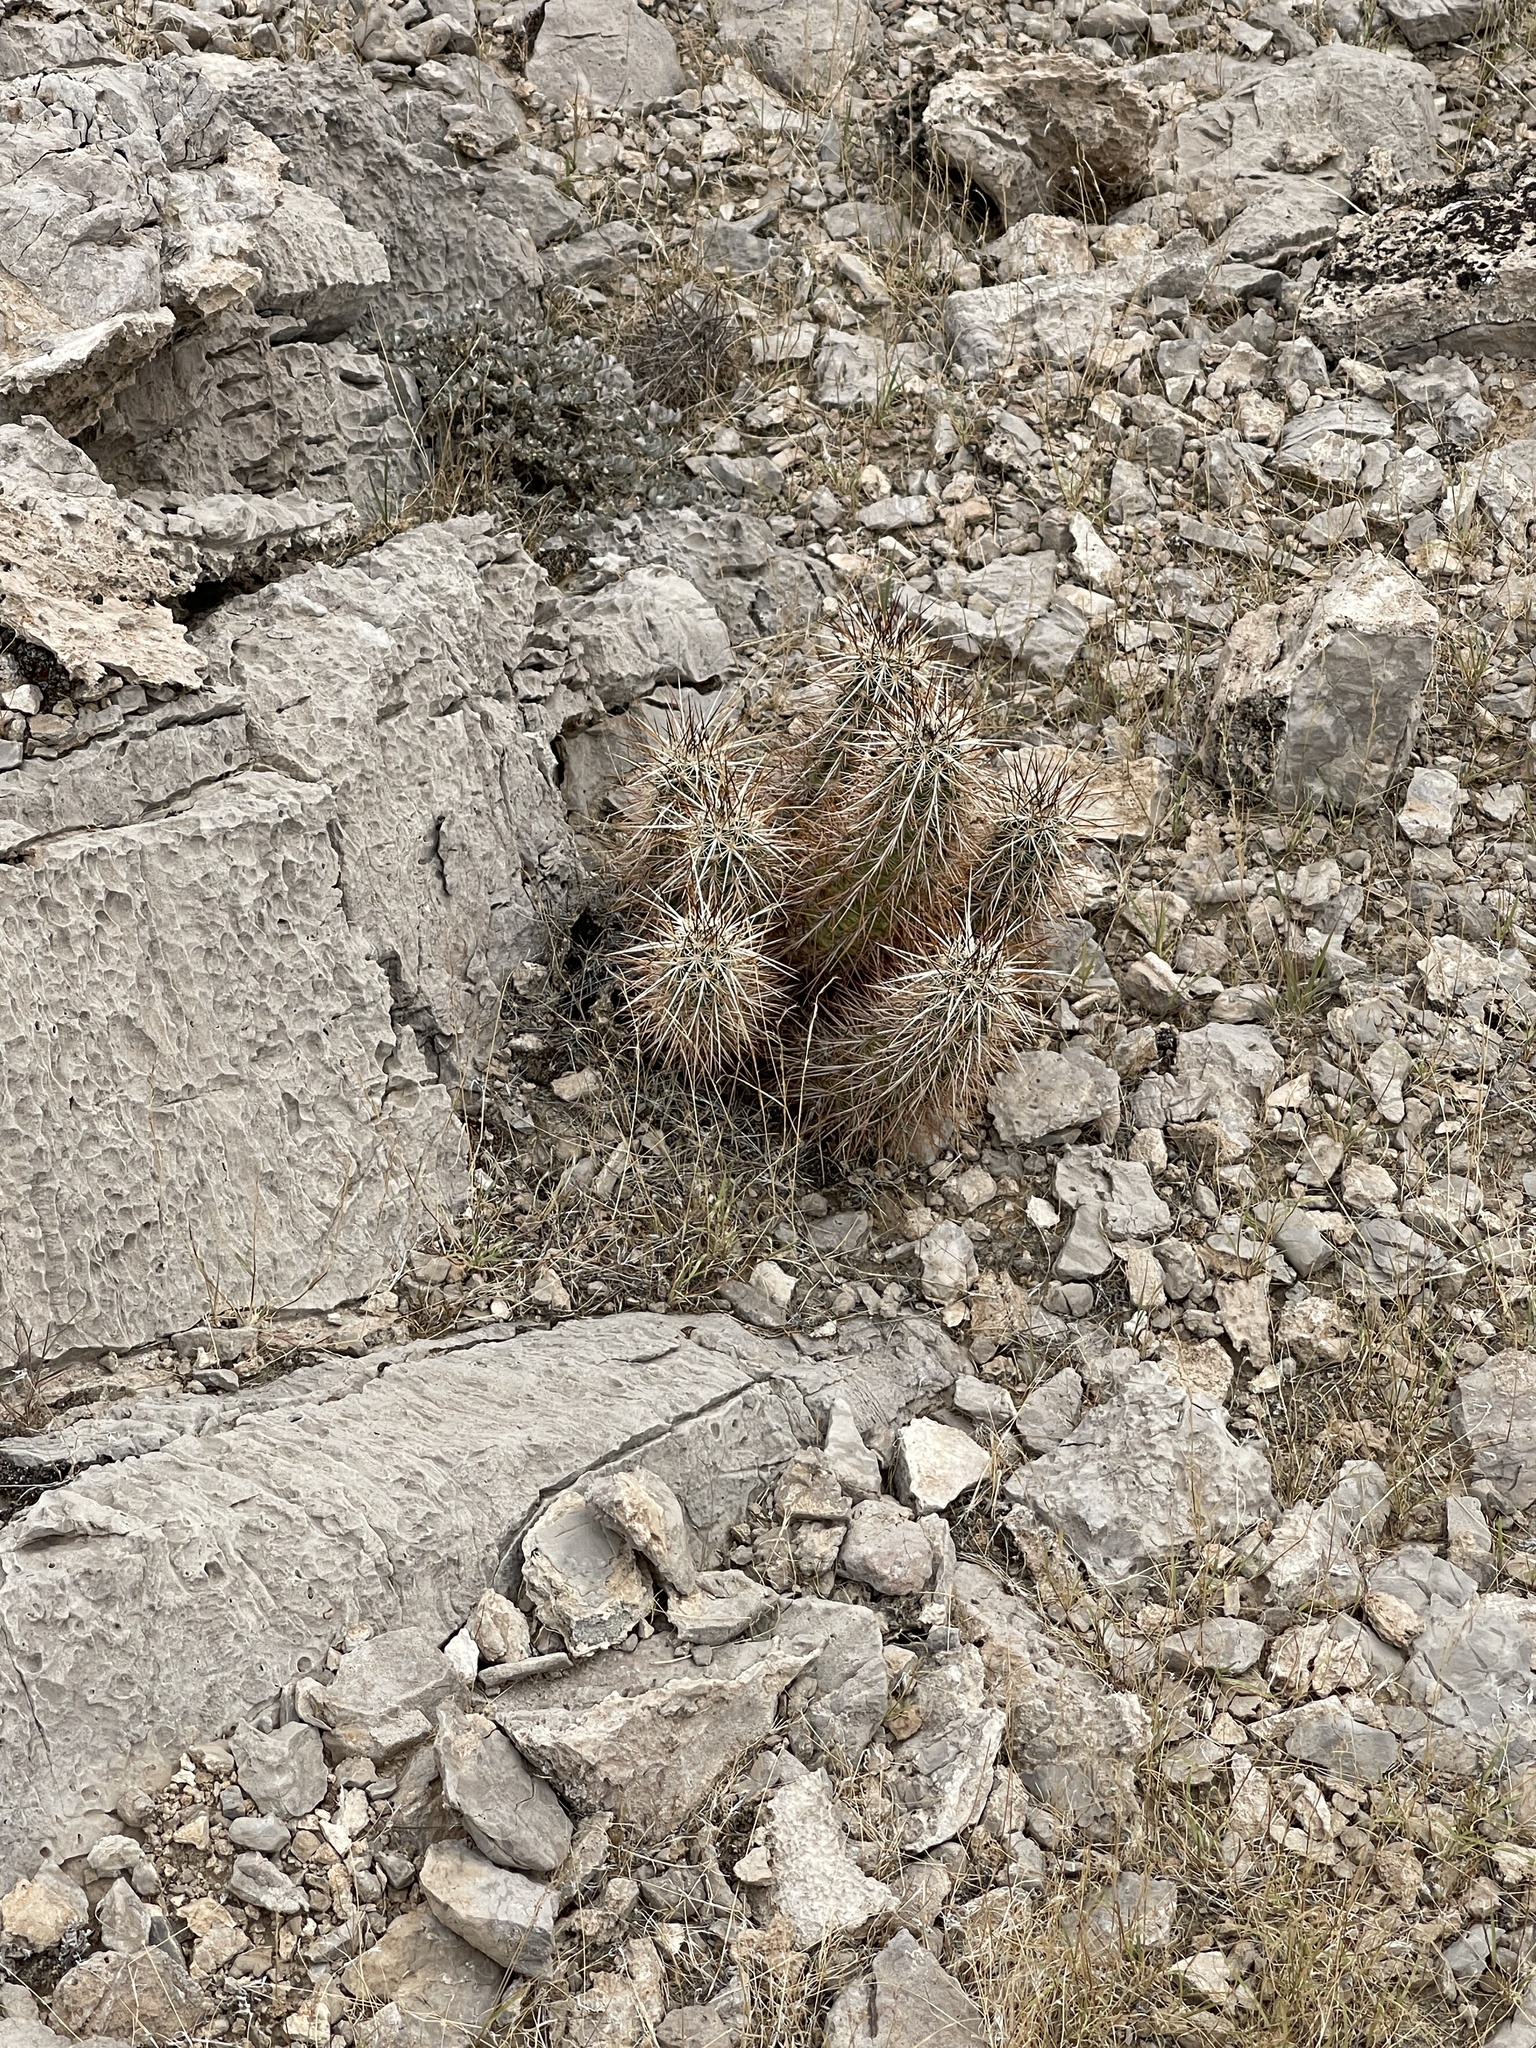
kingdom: Plantae
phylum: Tracheophyta
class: Magnoliopsida
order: Caryophyllales
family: Cactaceae
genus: Echinocereus
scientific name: Echinocereus engelmannii
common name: Engelmann's hedgehog cactus
